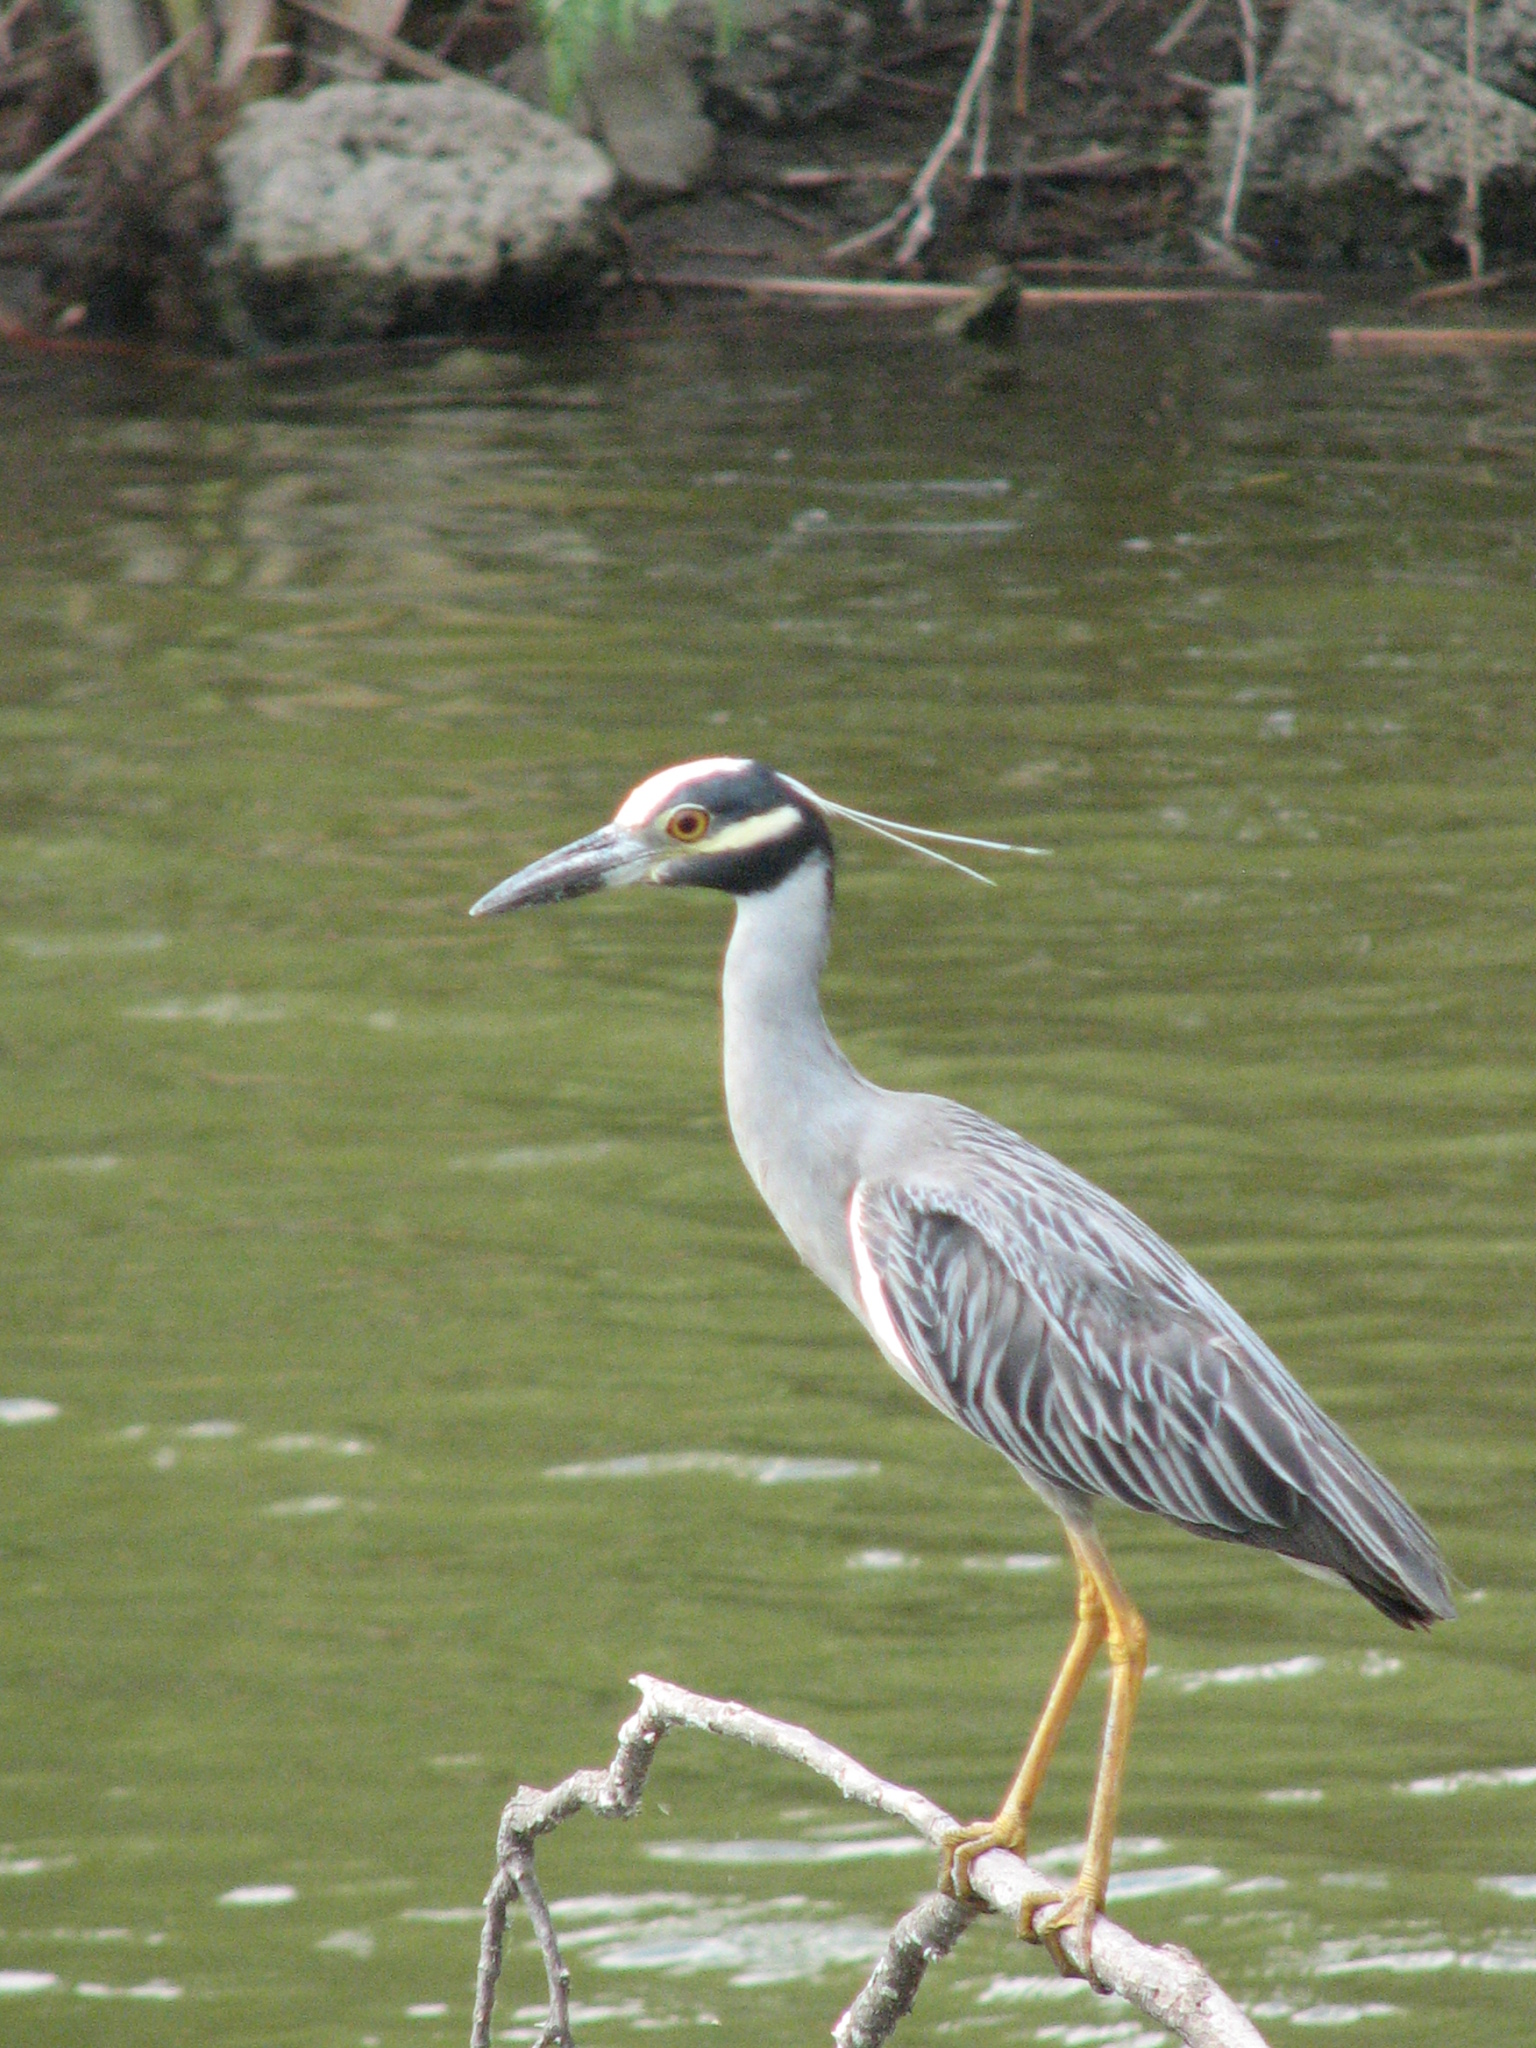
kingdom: Animalia
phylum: Chordata
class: Aves
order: Pelecaniformes
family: Ardeidae
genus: Nyctanassa
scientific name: Nyctanassa violacea
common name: Yellow-crowned night heron
